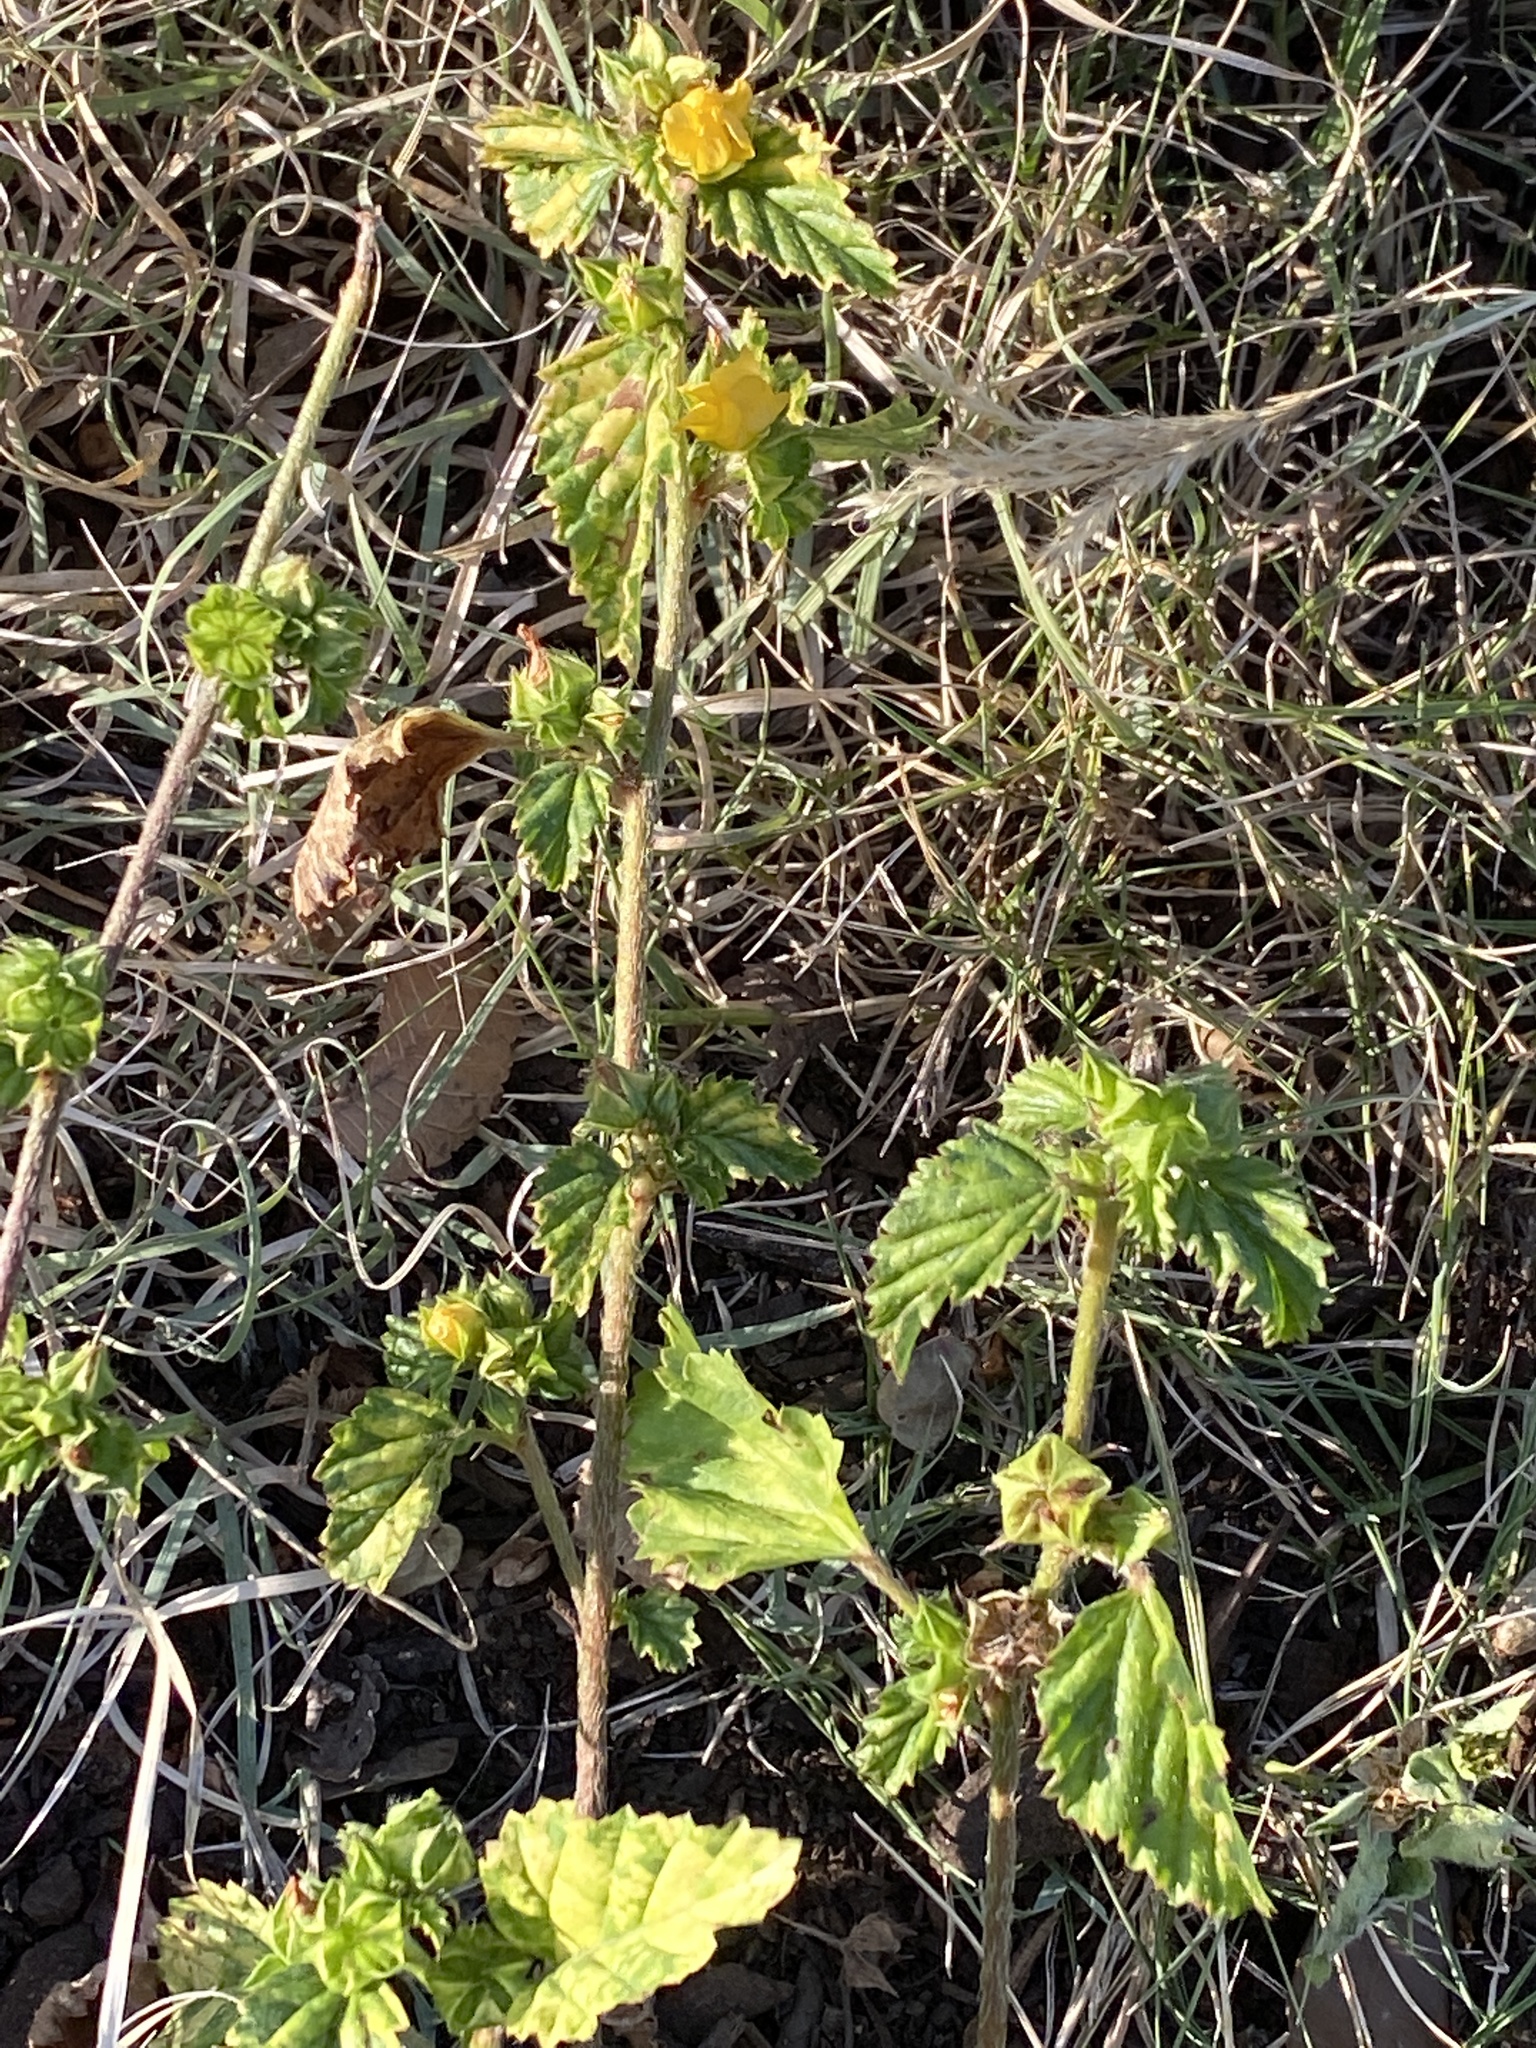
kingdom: Plantae
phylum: Tracheophyta
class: Magnoliopsida
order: Malvales
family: Malvaceae
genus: Malvastrum
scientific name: Malvastrum coromandelianum
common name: Threelobe false mallow
